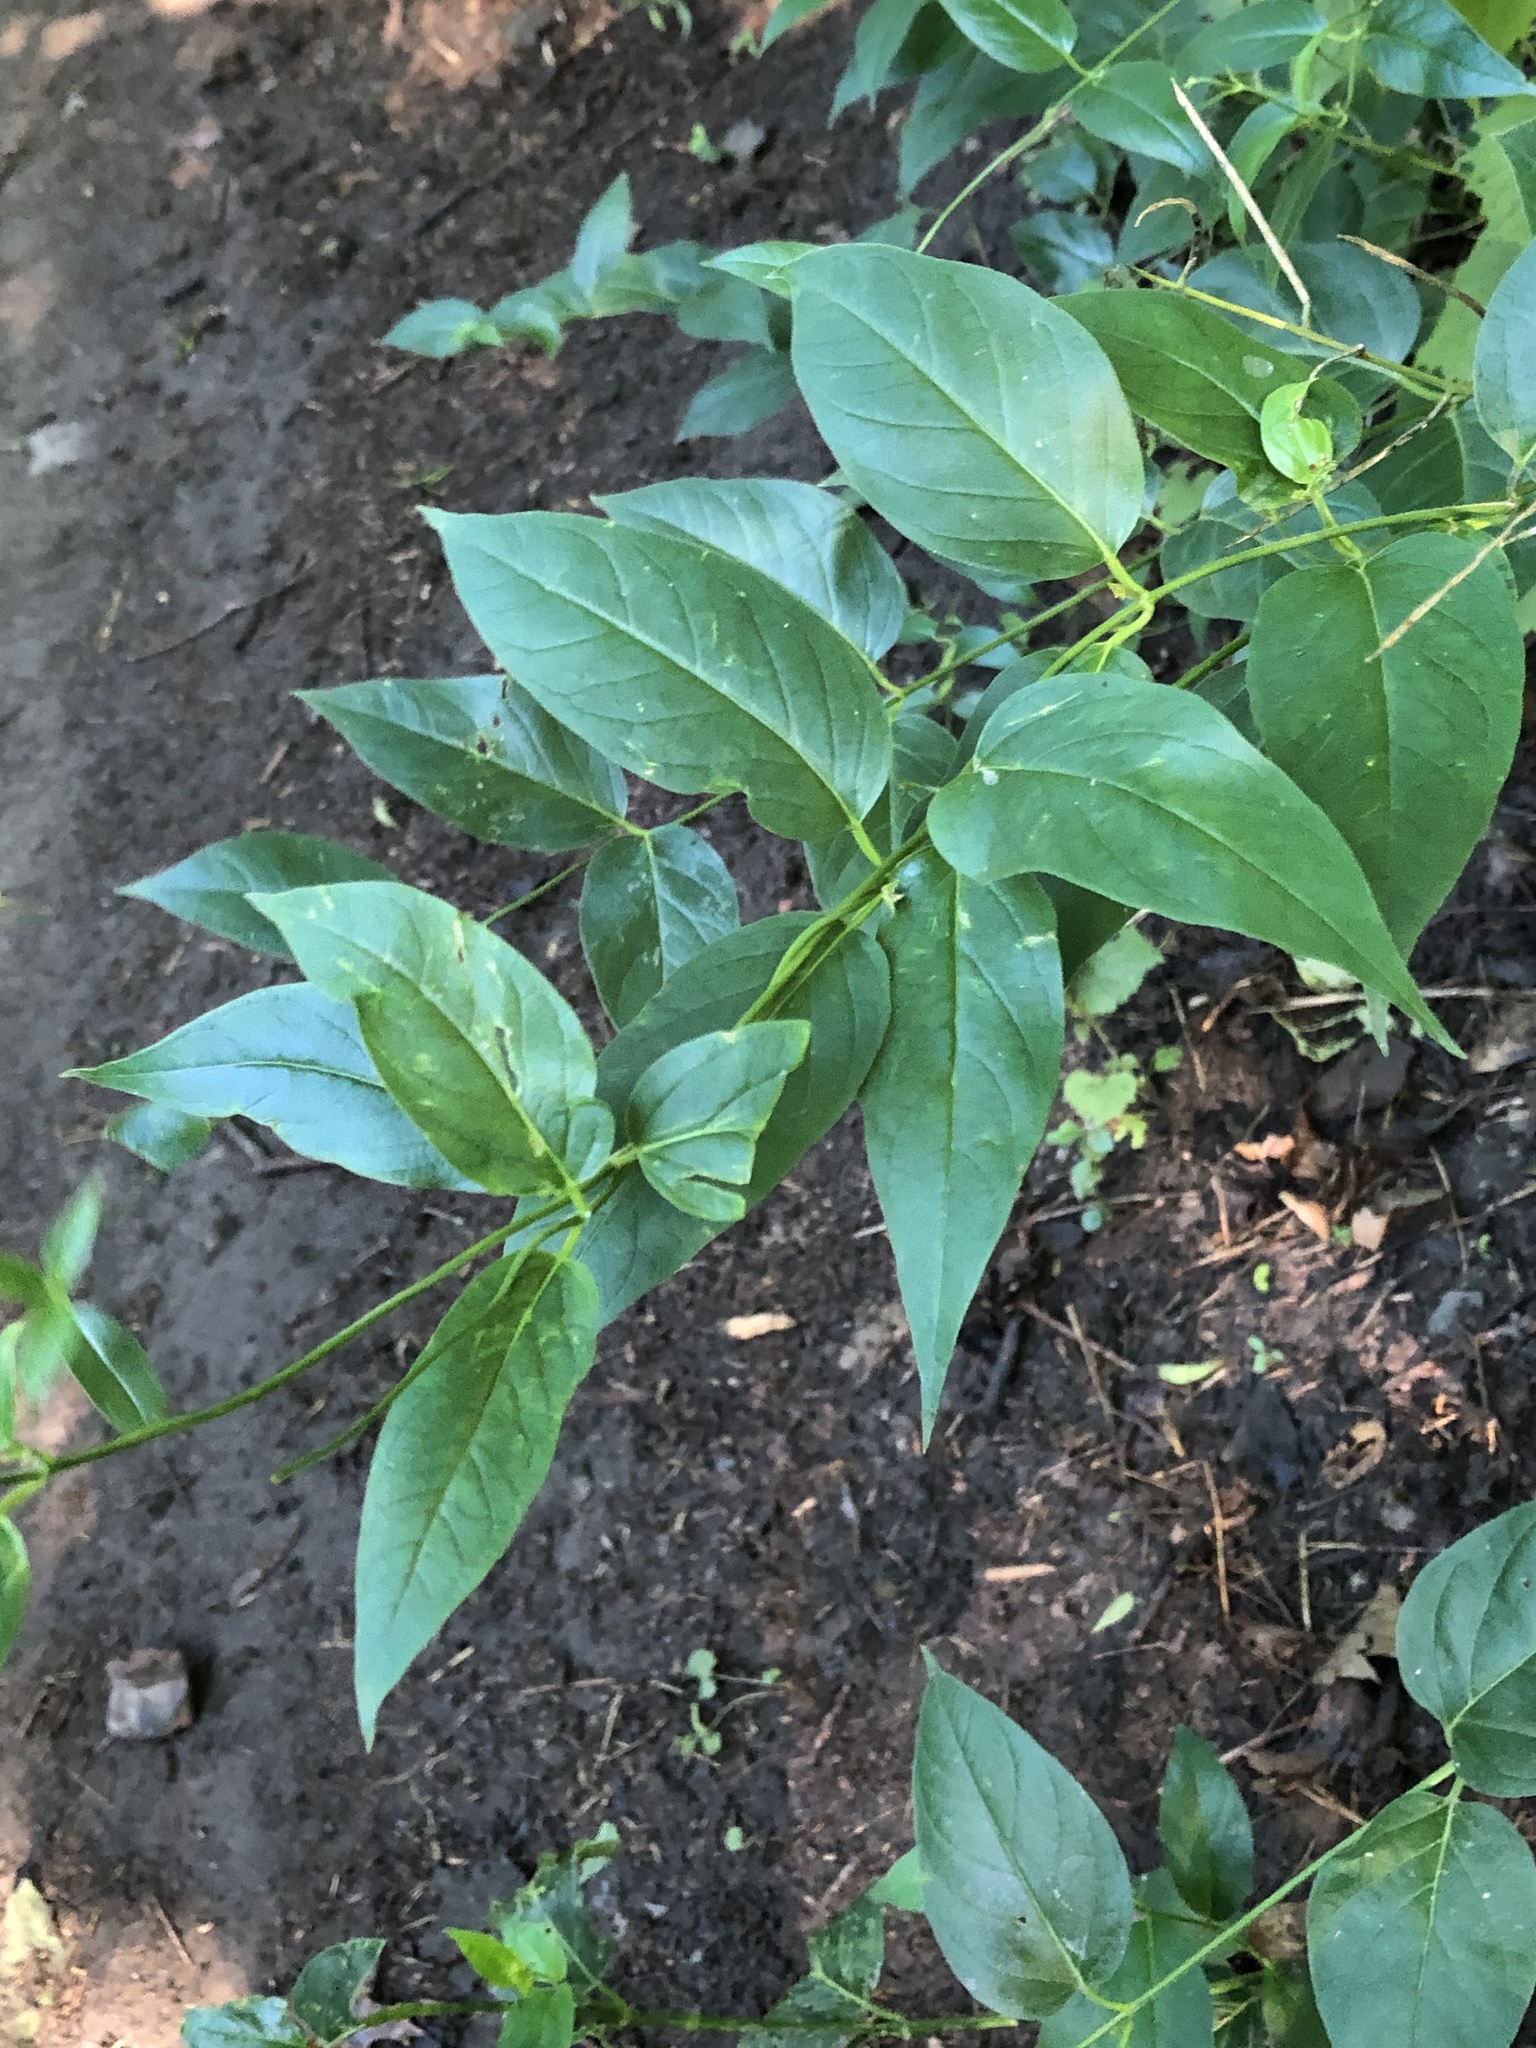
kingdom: Plantae
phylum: Tracheophyta
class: Magnoliopsida
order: Gentianales
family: Apocynaceae
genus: Vincetoxicum
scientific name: Vincetoxicum rossicum
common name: Dog-strangling vine
